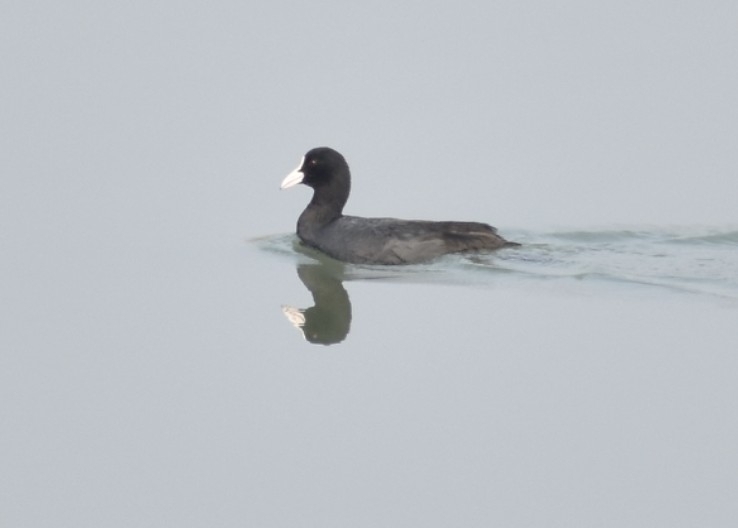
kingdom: Animalia
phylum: Chordata
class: Aves
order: Gruiformes
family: Rallidae
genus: Fulica
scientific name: Fulica atra
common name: Eurasian coot
